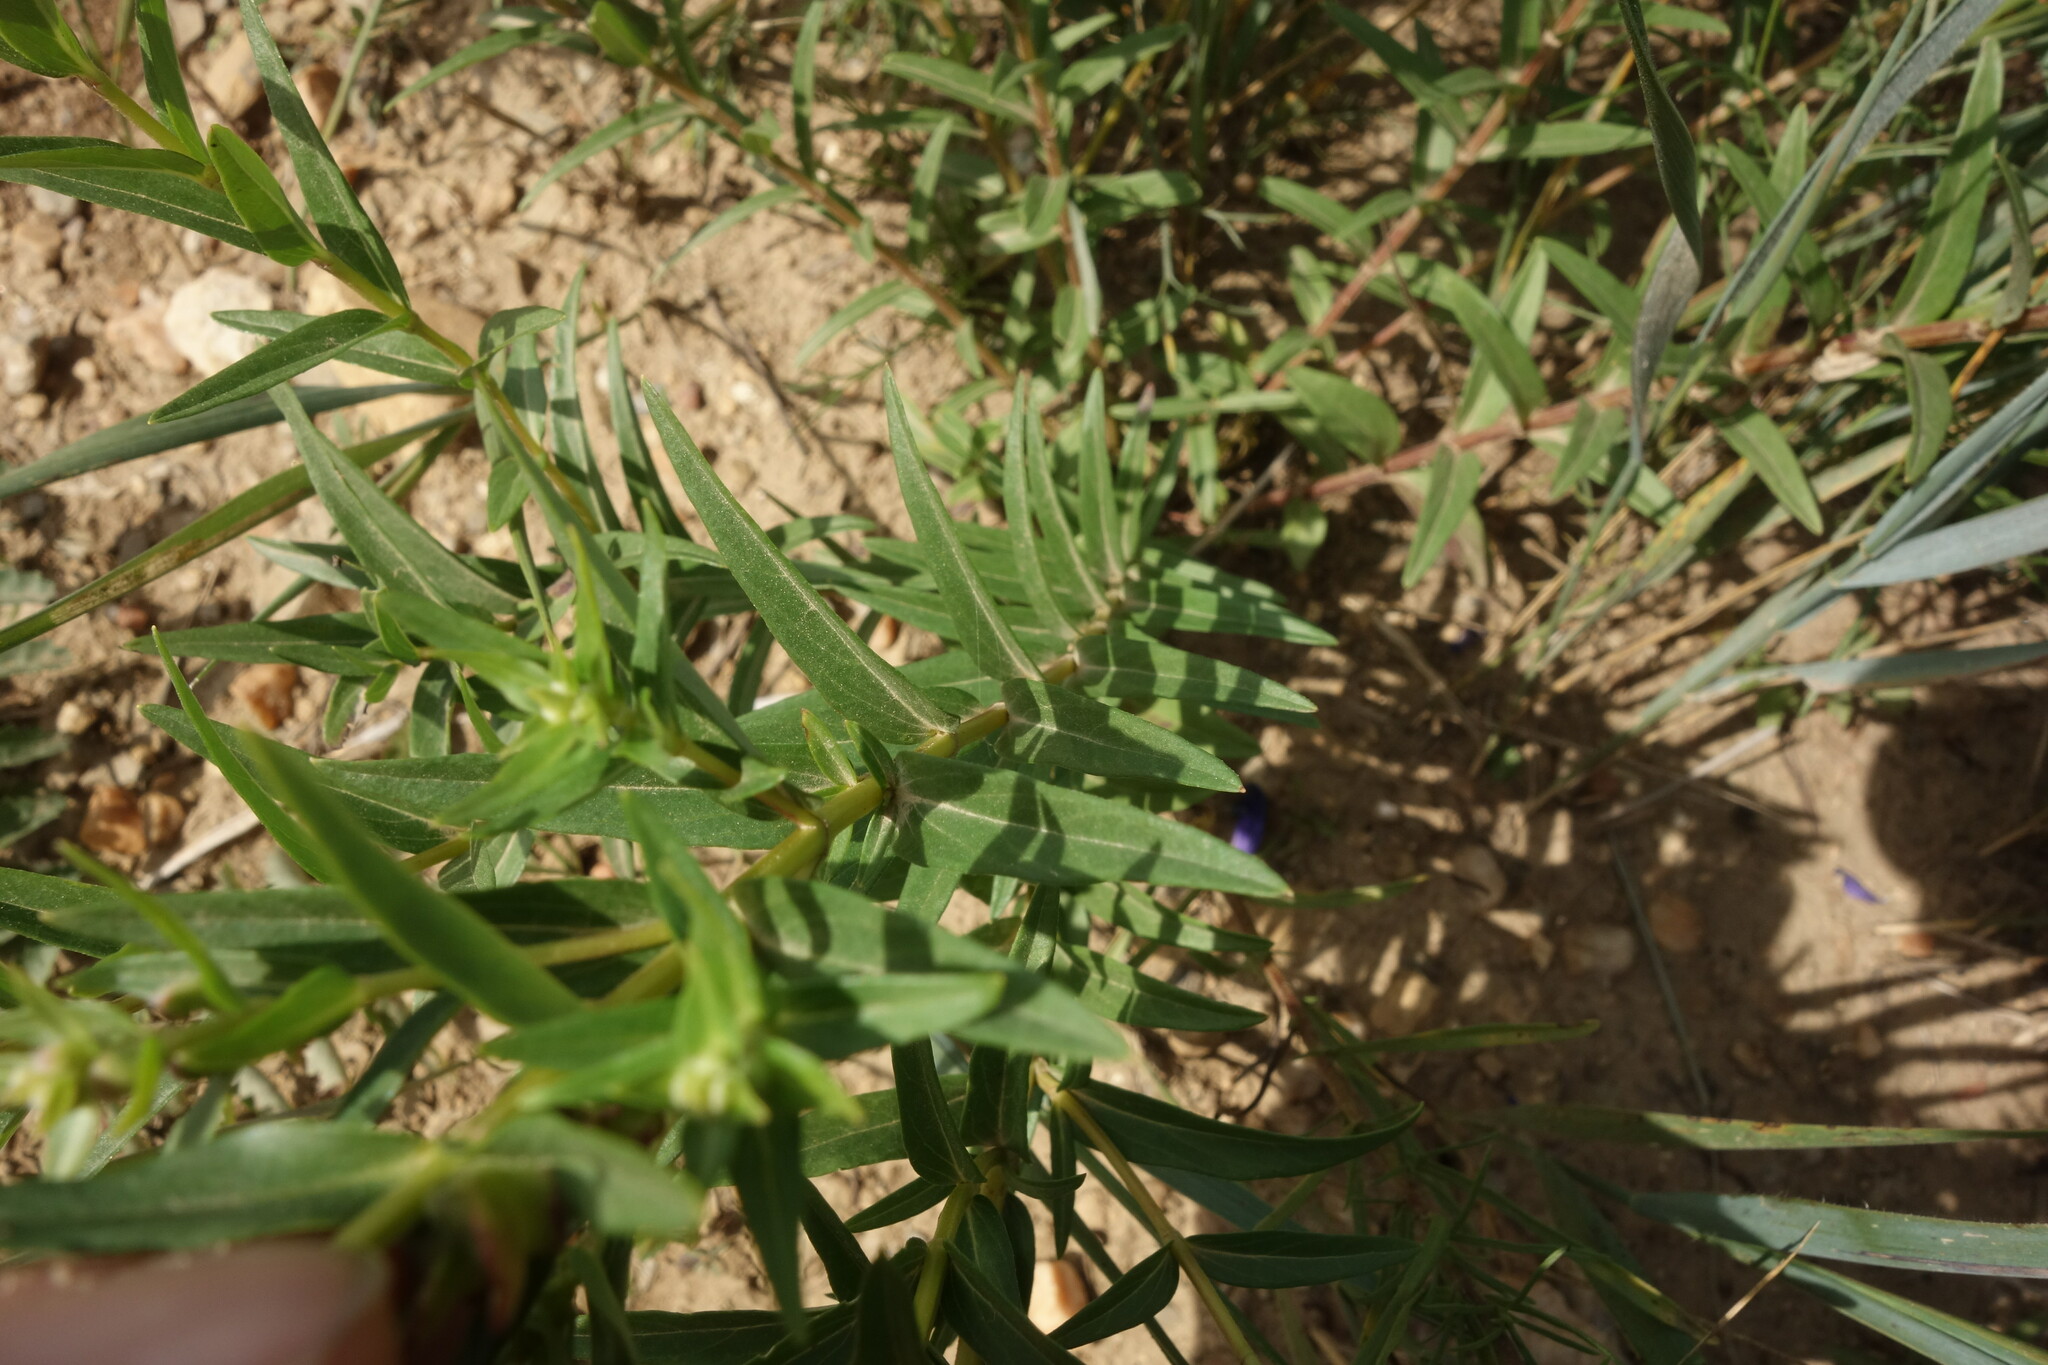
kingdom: Plantae
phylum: Tracheophyta
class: Magnoliopsida
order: Lamiales
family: Lamiaceae
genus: Scutellaria
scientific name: Scutellaria baicalensis
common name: Baikal skullcap
